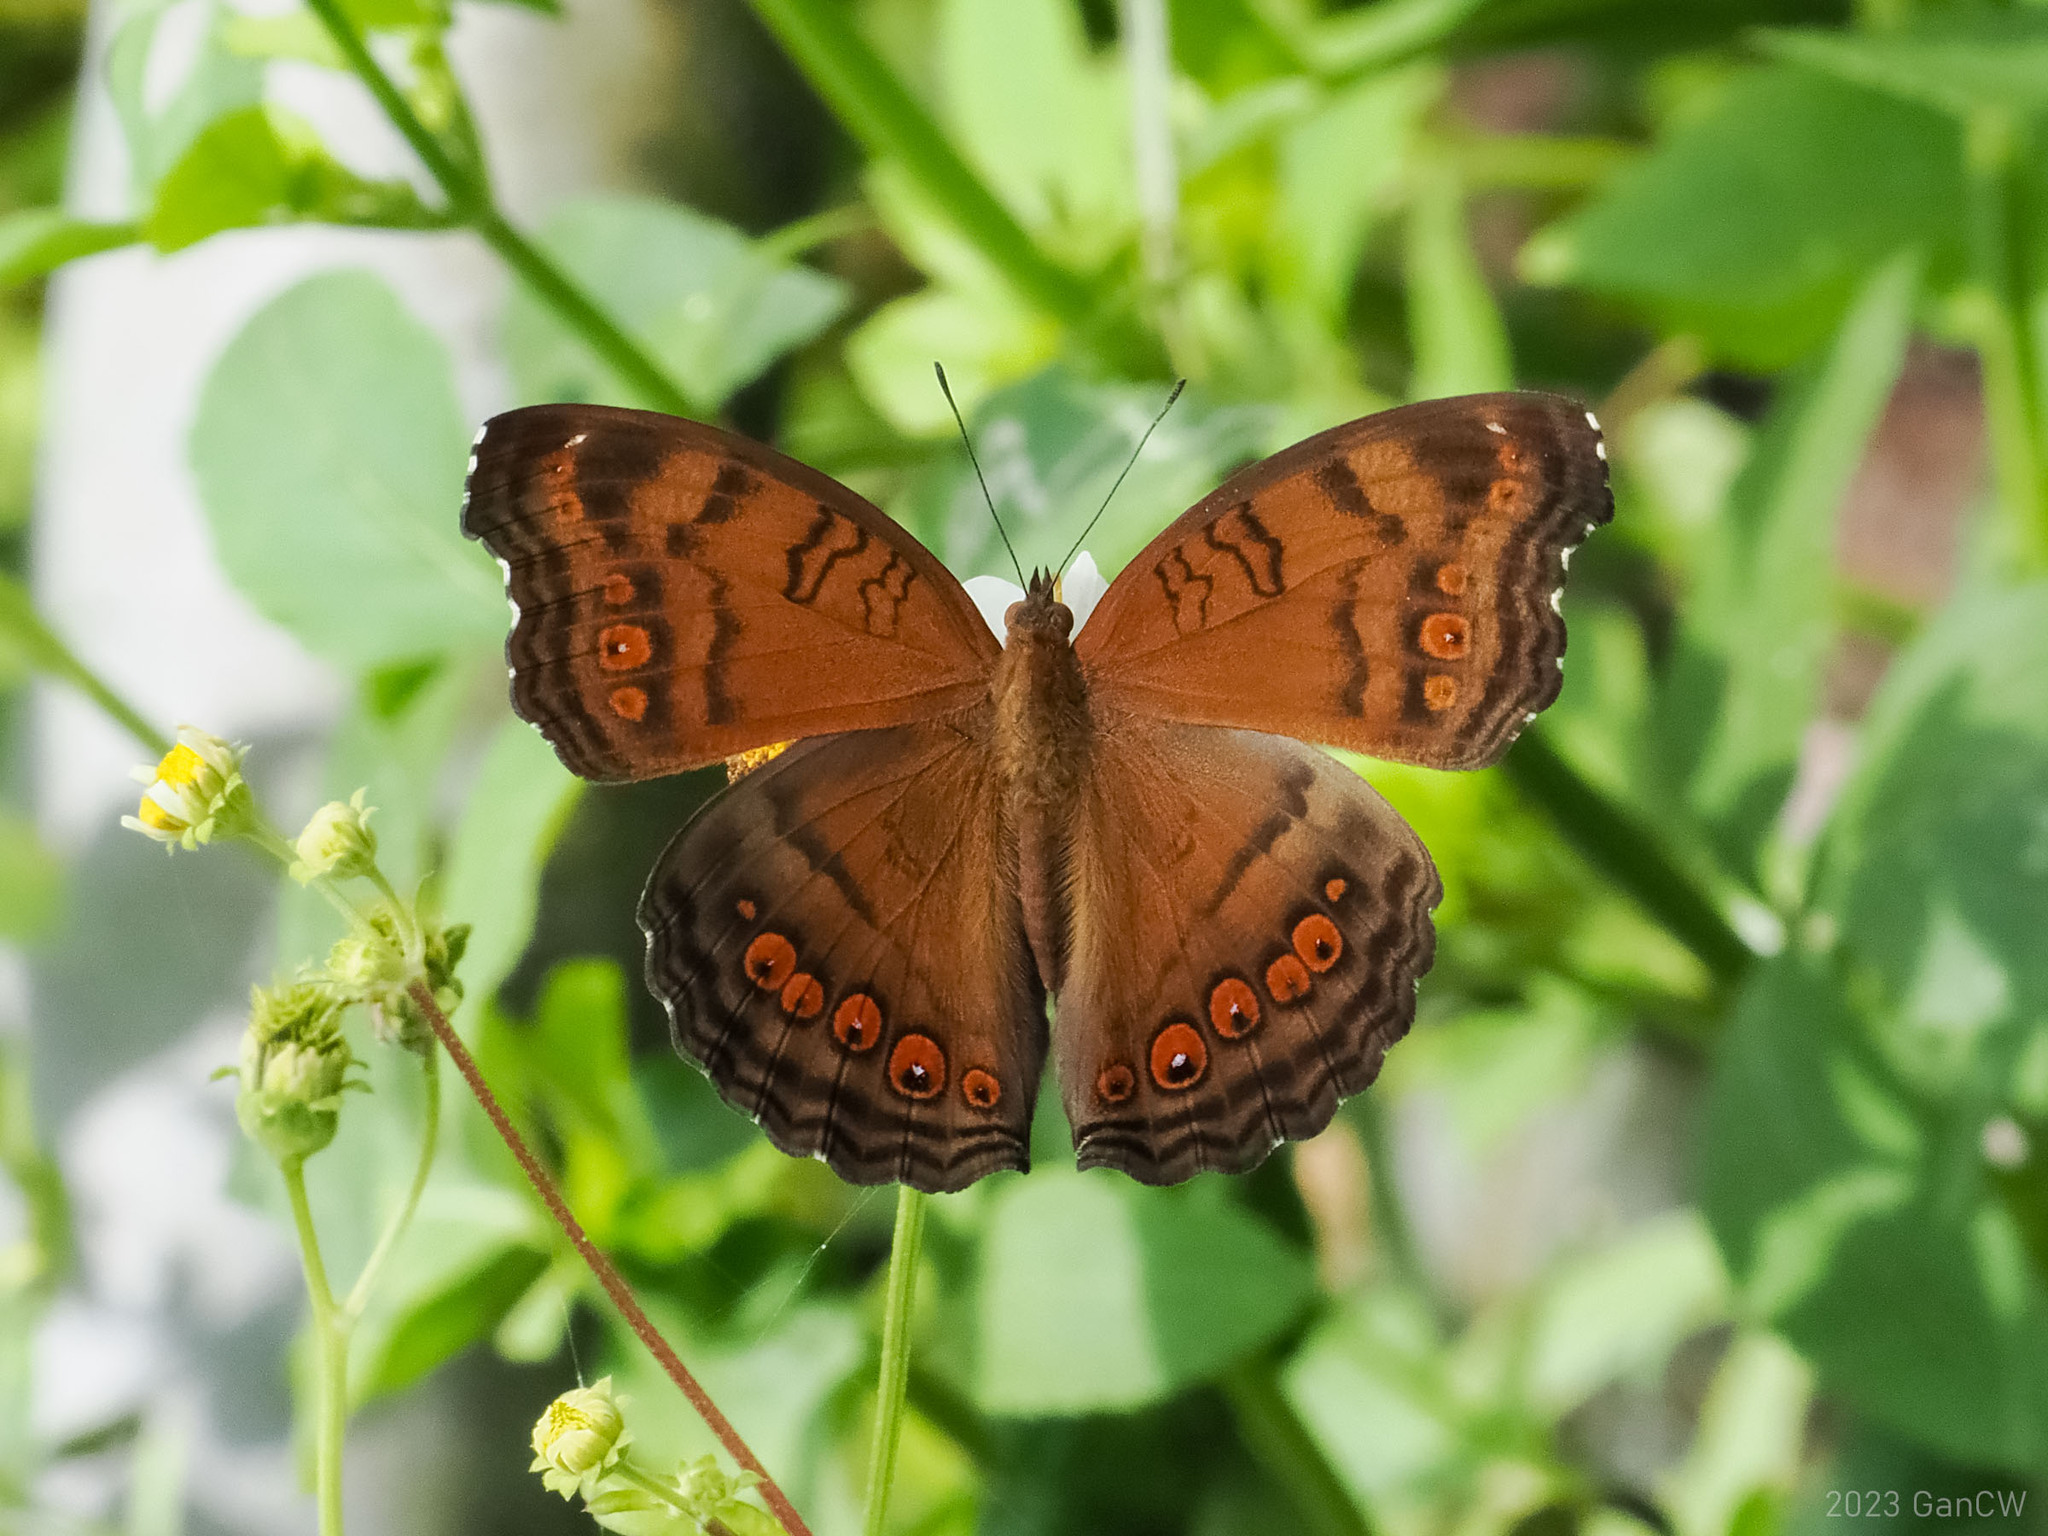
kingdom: Animalia
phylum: Arthropoda
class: Insecta
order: Lepidoptera
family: Nymphalidae
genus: Junonia
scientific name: Junonia hedonia
